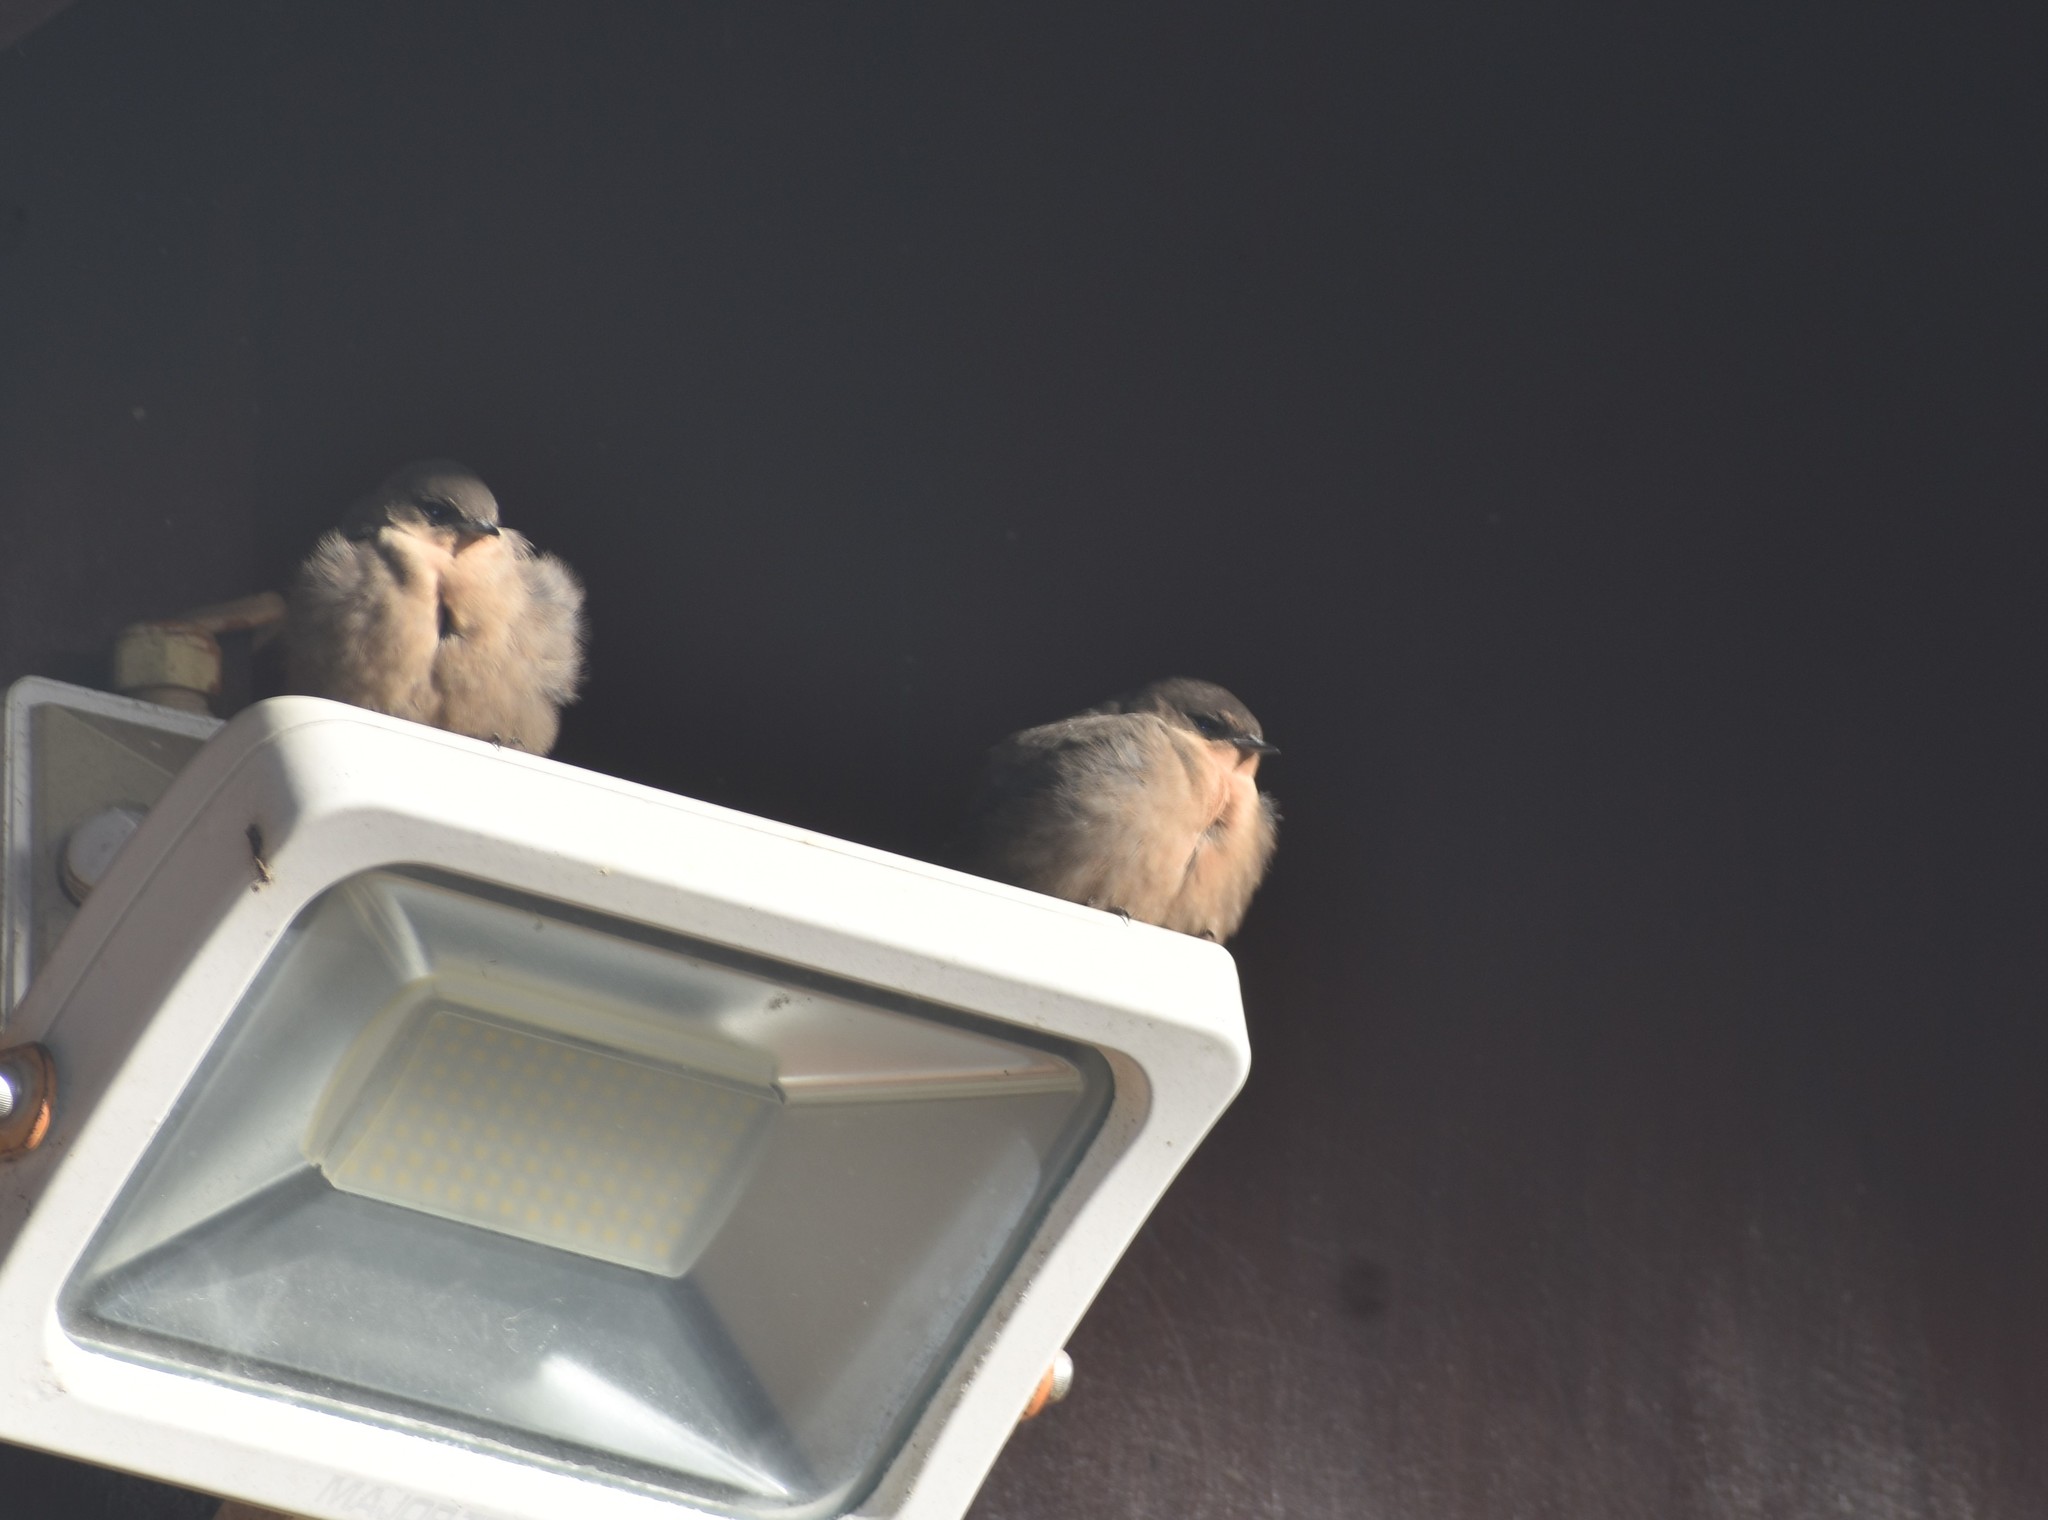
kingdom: Animalia
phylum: Chordata
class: Aves
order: Passeriformes
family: Hirundinidae
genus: Ptyonoprogne
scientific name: Ptyonoprogne fuligula
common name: Rock martin
